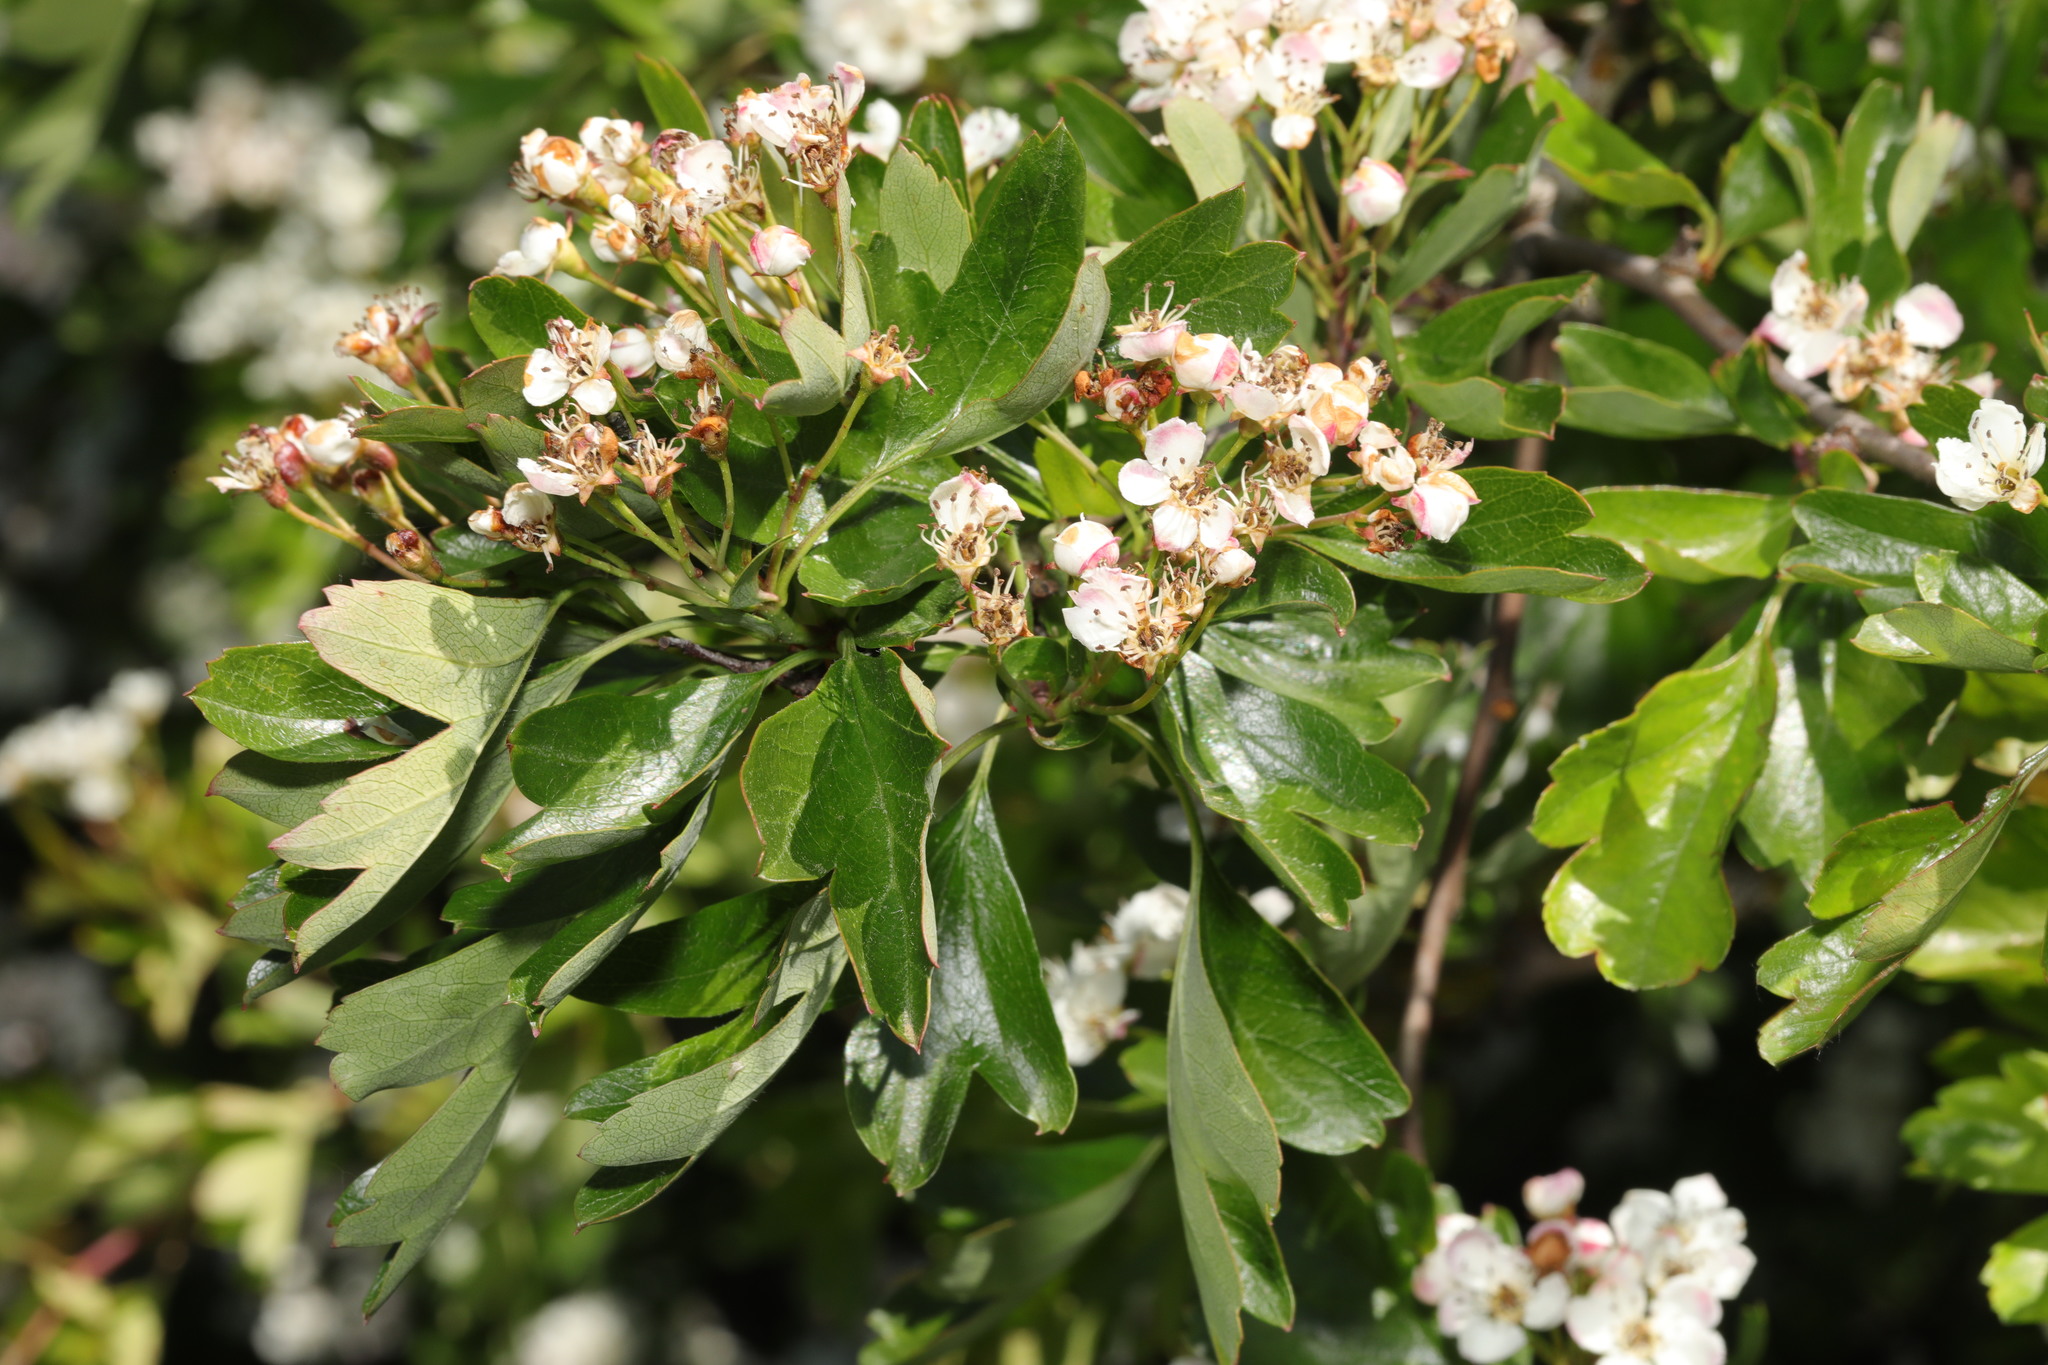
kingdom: Plantae
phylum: Tracheophyta
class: Magnoliopsida
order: Rosales
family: Rosaceae
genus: Crataegus
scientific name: Crataegus monogyna
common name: Hawthorn
